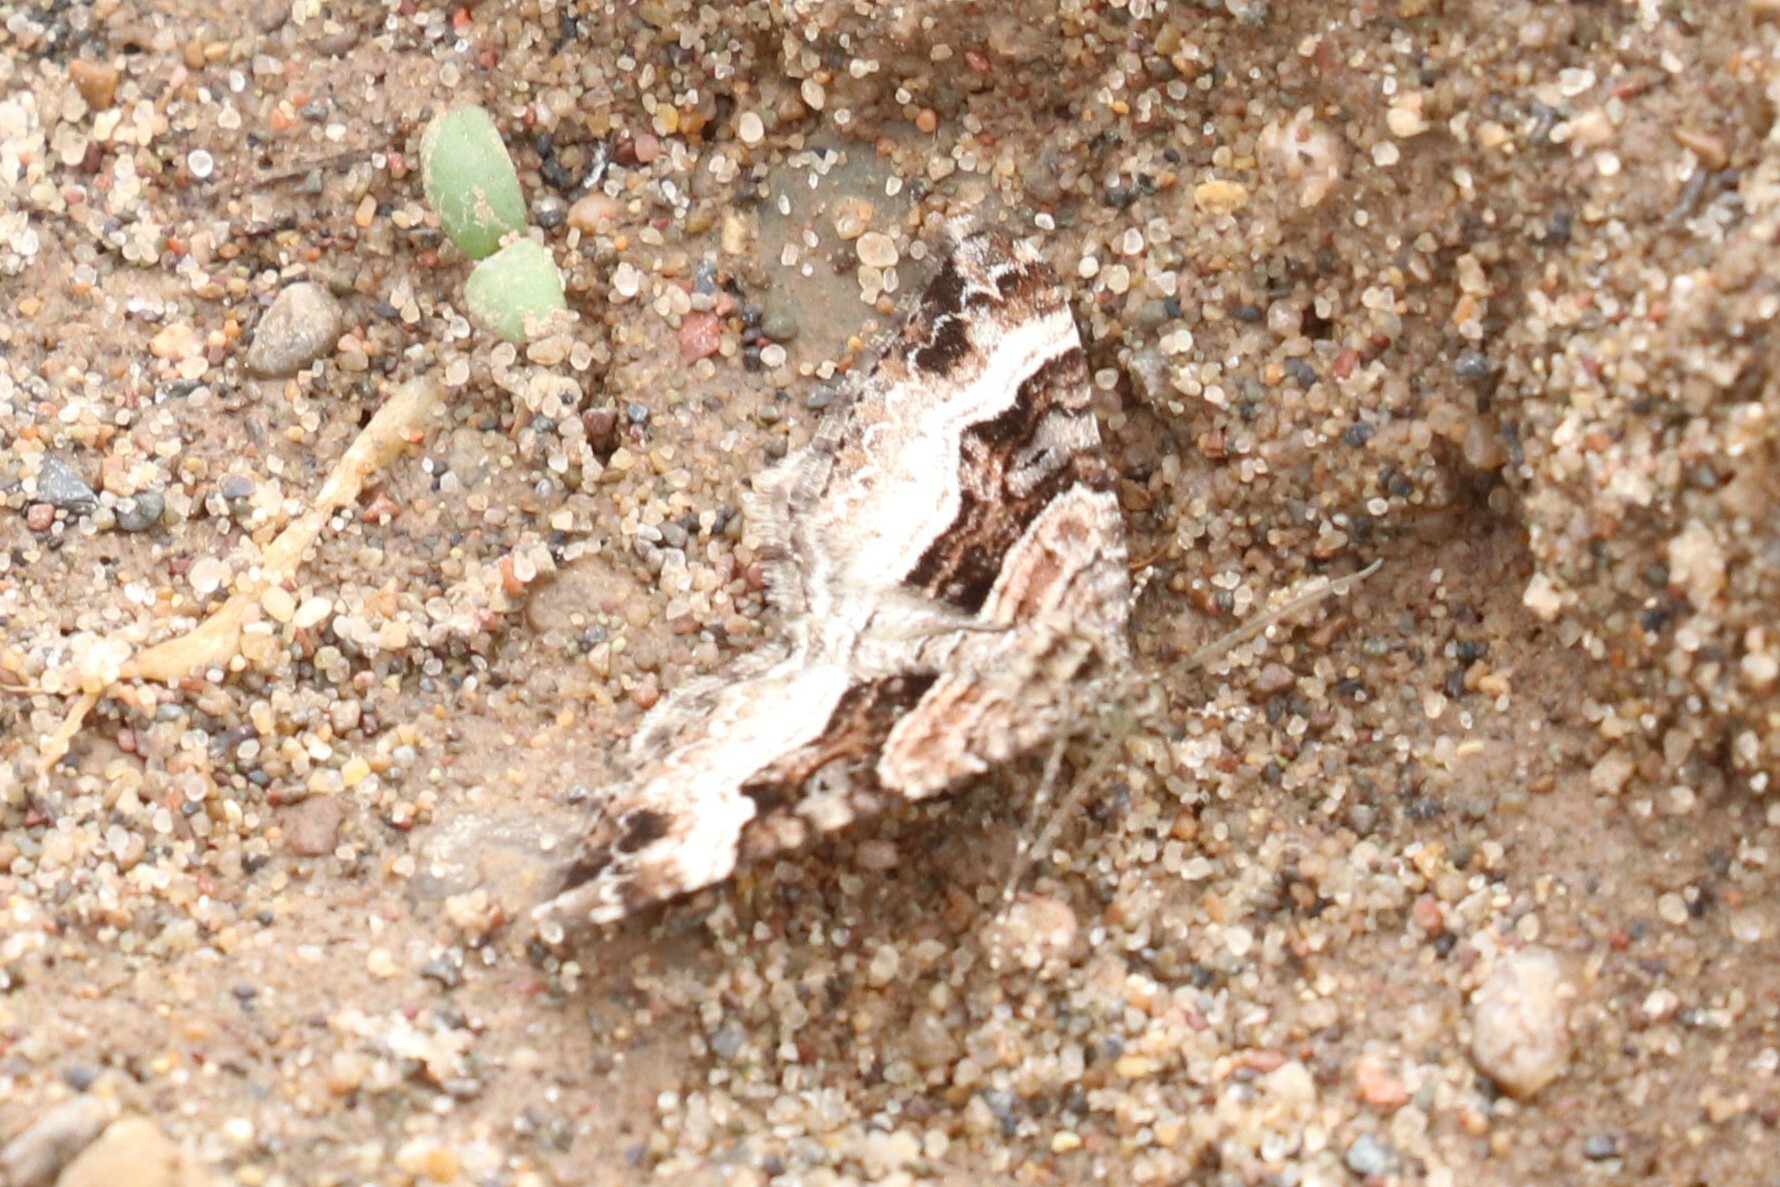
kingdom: Animalia
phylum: Arthropoda
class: Insecta
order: Lepidoptera
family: Geometridae
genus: Xanthorhoe
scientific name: Xanthorhoe biriviata
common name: Balsam carpet
